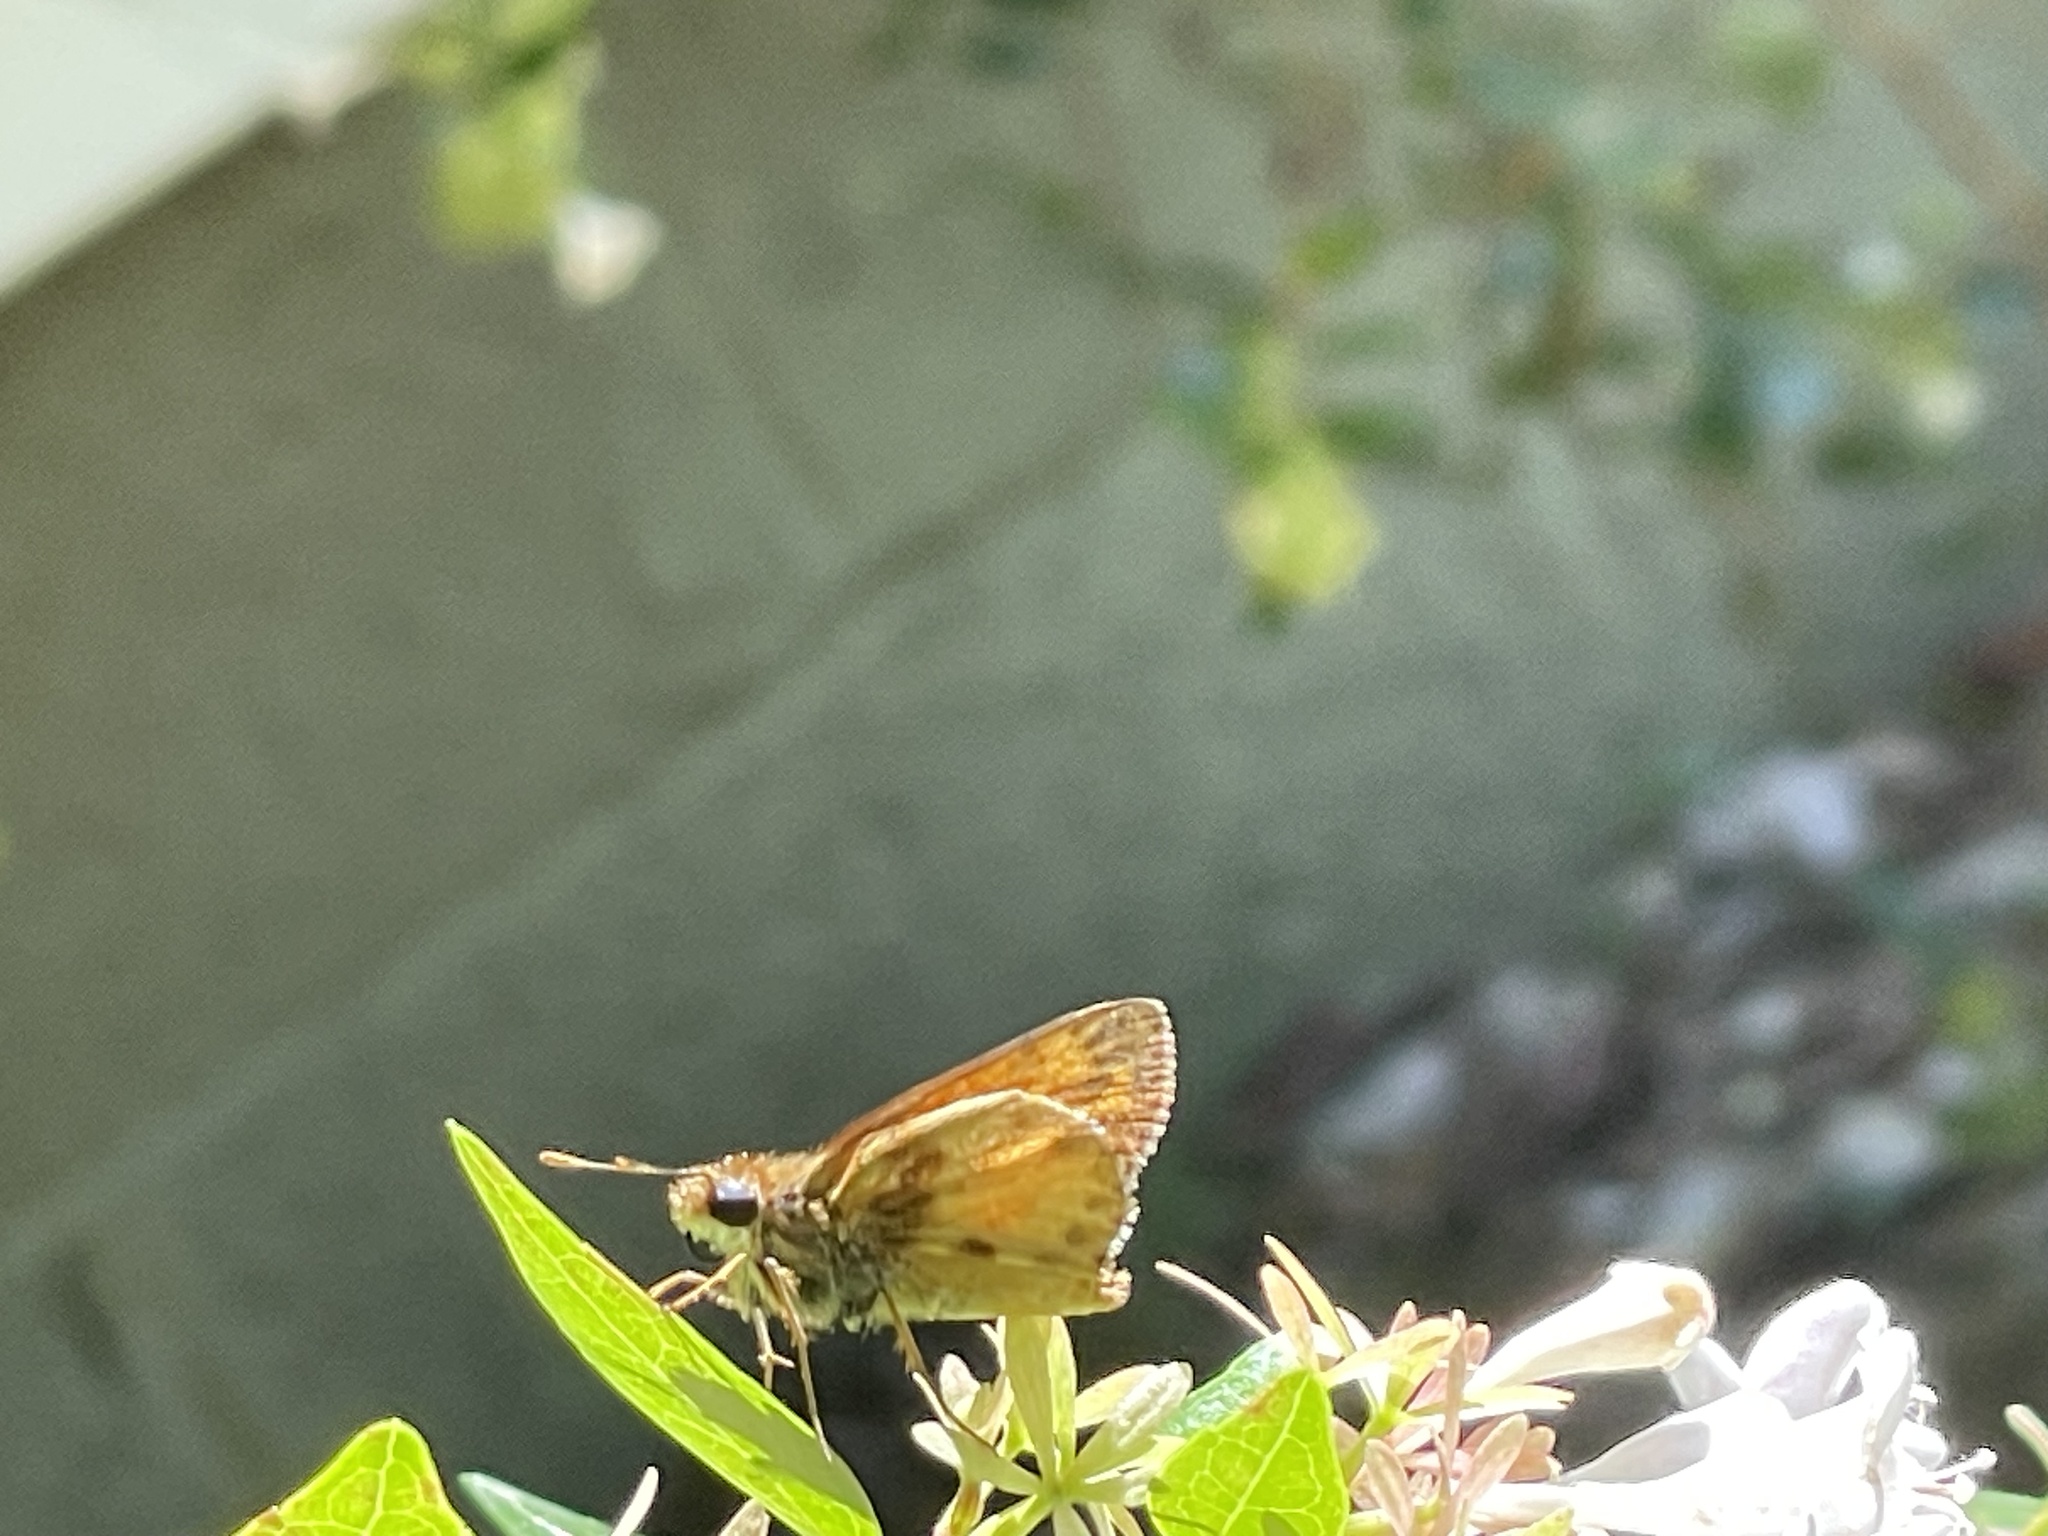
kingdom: Animalia
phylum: Arthropoda
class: Insecta
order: Lepidoptera
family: Hesperiidae
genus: Lon
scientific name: Lon zabulon
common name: Zabulon skipper
